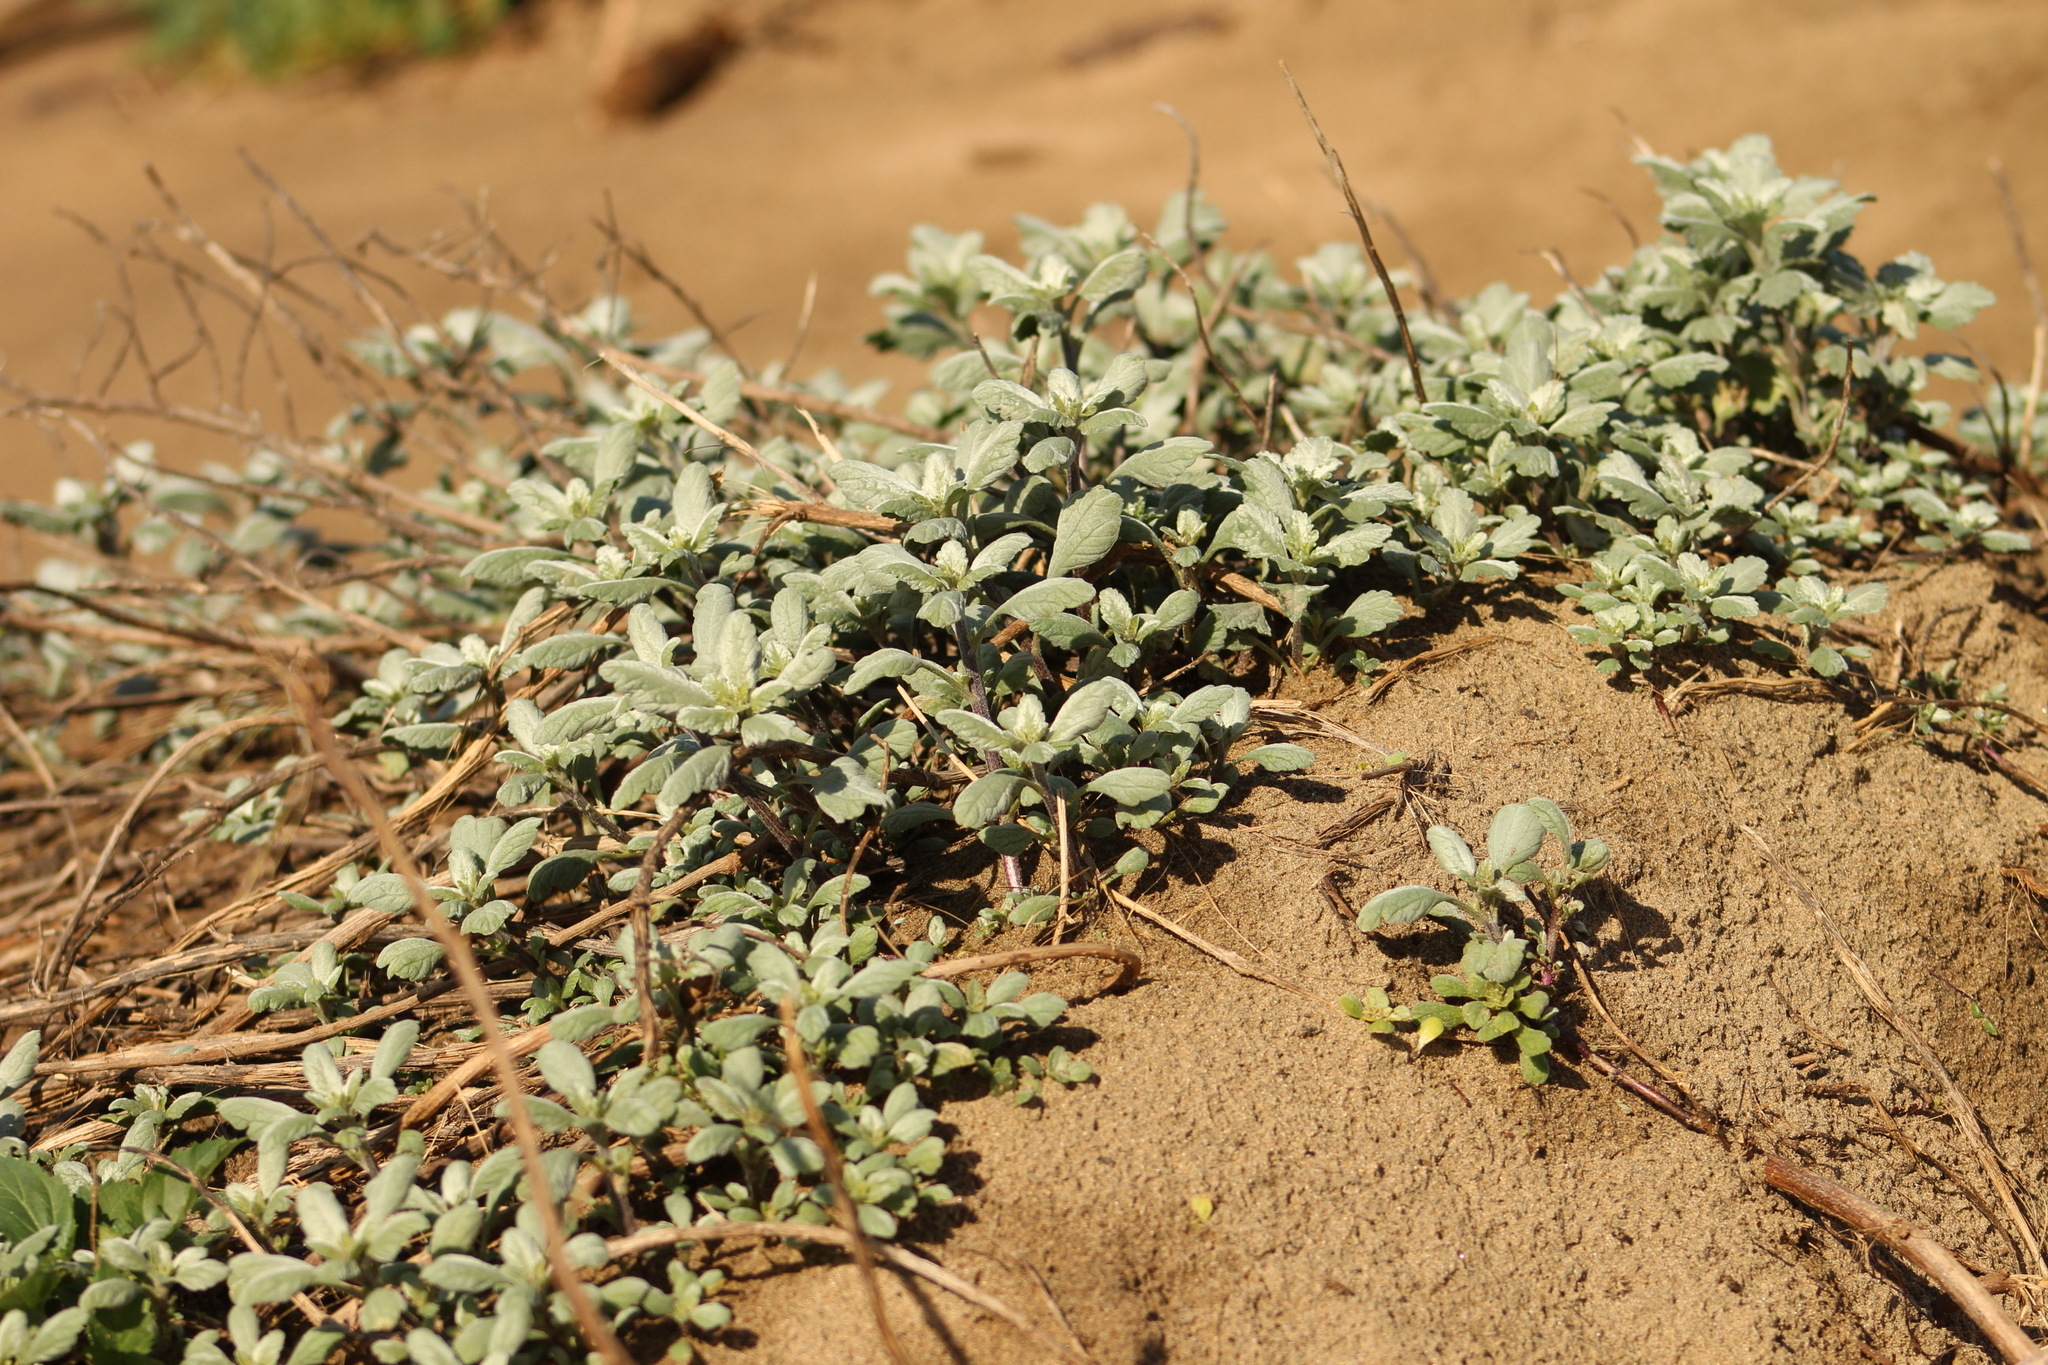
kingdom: Plantae
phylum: Tracheophyta
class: Magnoliopsida
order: Asterales
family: Asteraceae
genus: Ambrosia
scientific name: Ambrosia chamissonis
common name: Beachbur
